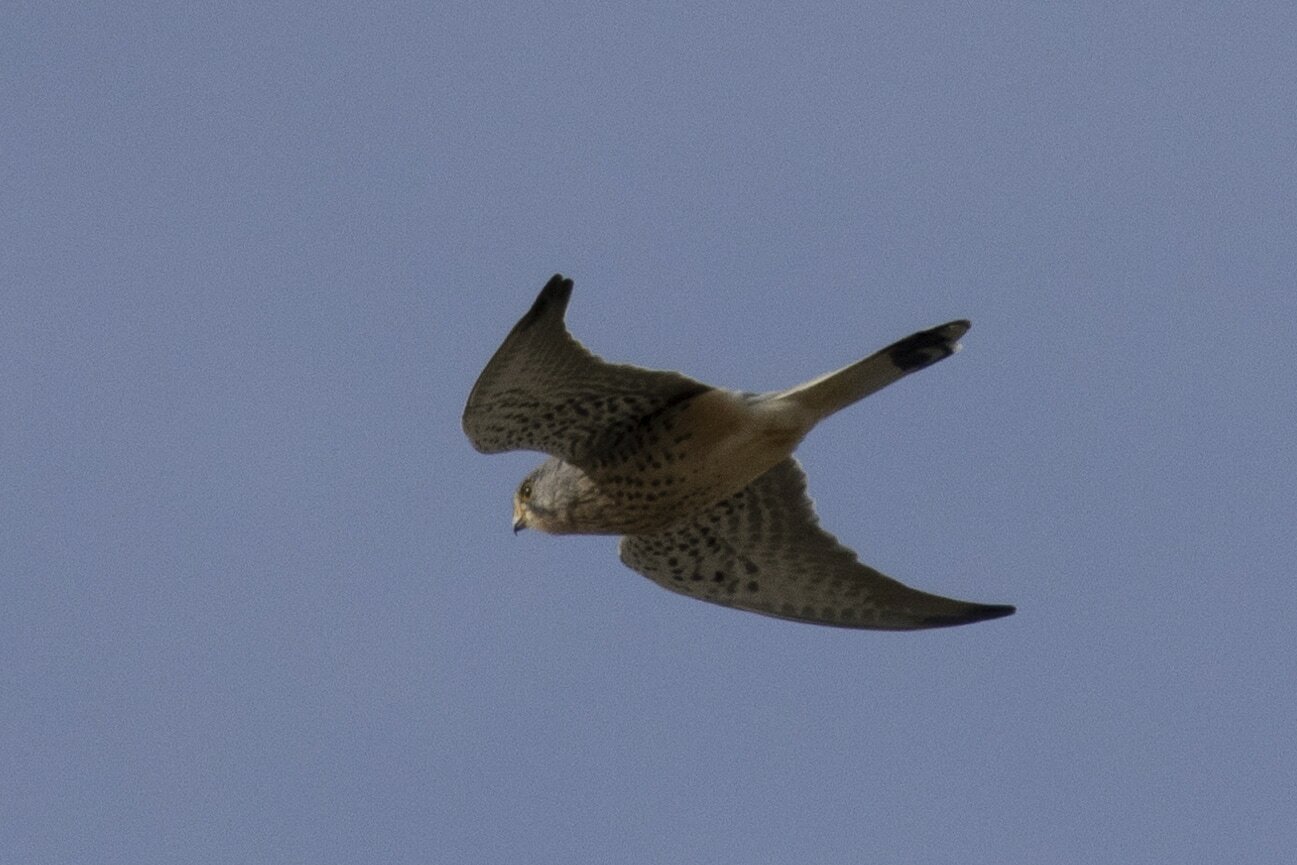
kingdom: Animalia
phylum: Chordata
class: Aves
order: Falconiformes
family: Falconidae
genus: Falco
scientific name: Falco tinnunculus
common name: Common kestrel
